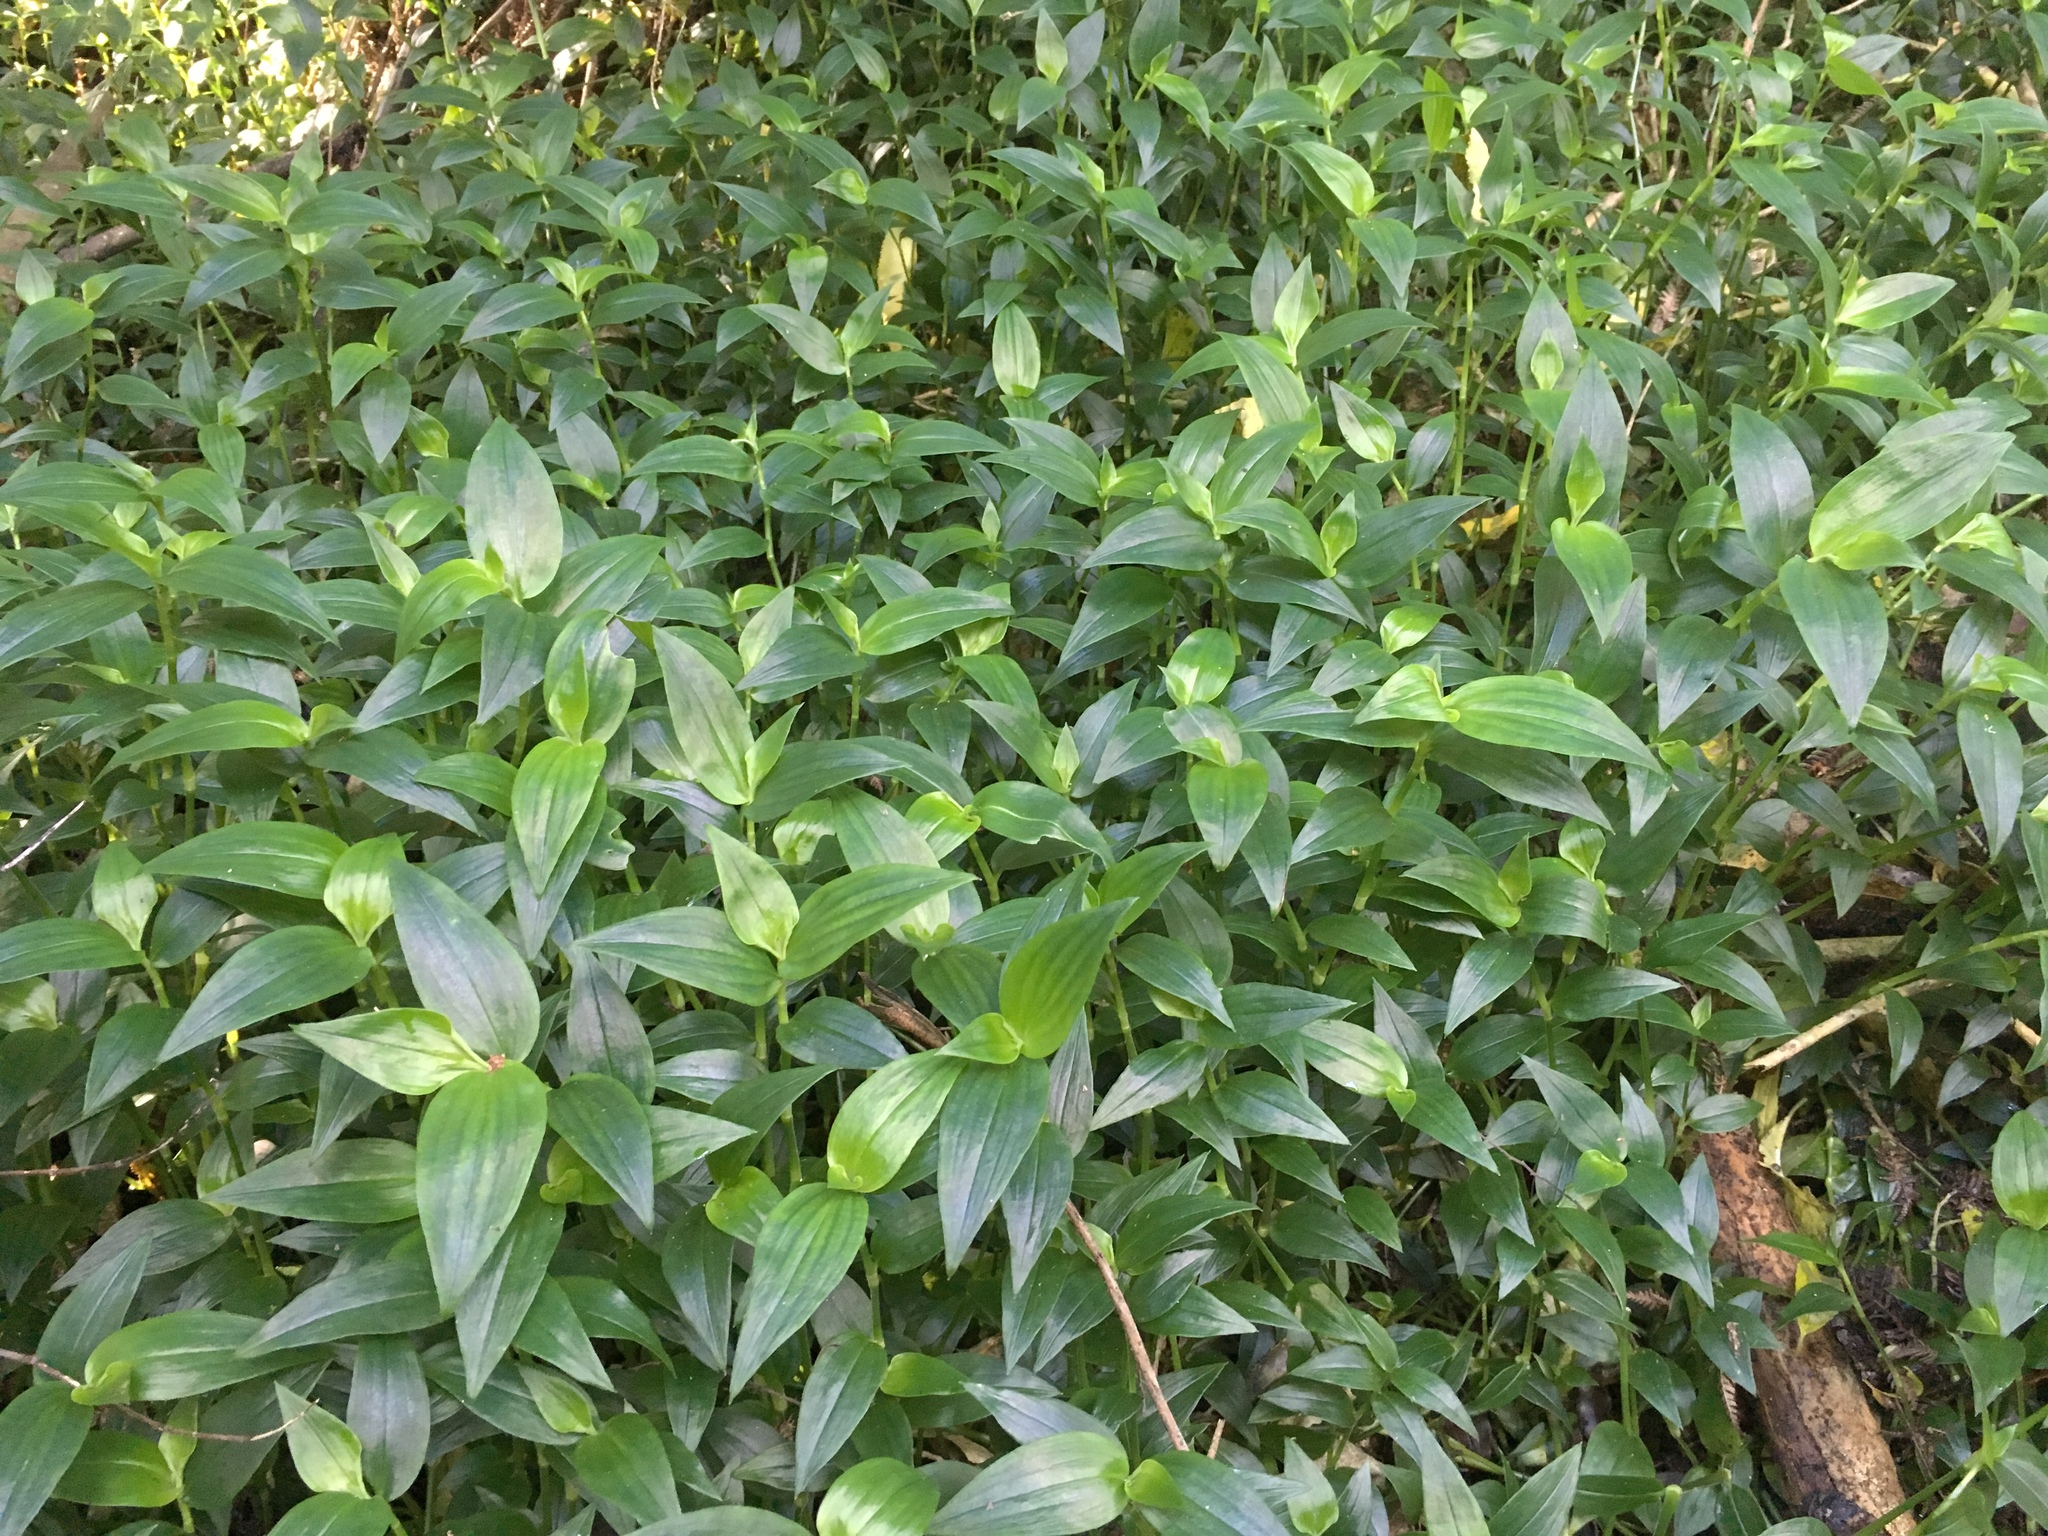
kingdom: Plantae
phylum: Tracheophyta
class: Liliopsida
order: Commelinales
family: Commelinaceae
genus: Tradescantia
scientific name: Tradescantia fluminensis
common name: Wandering-jew
